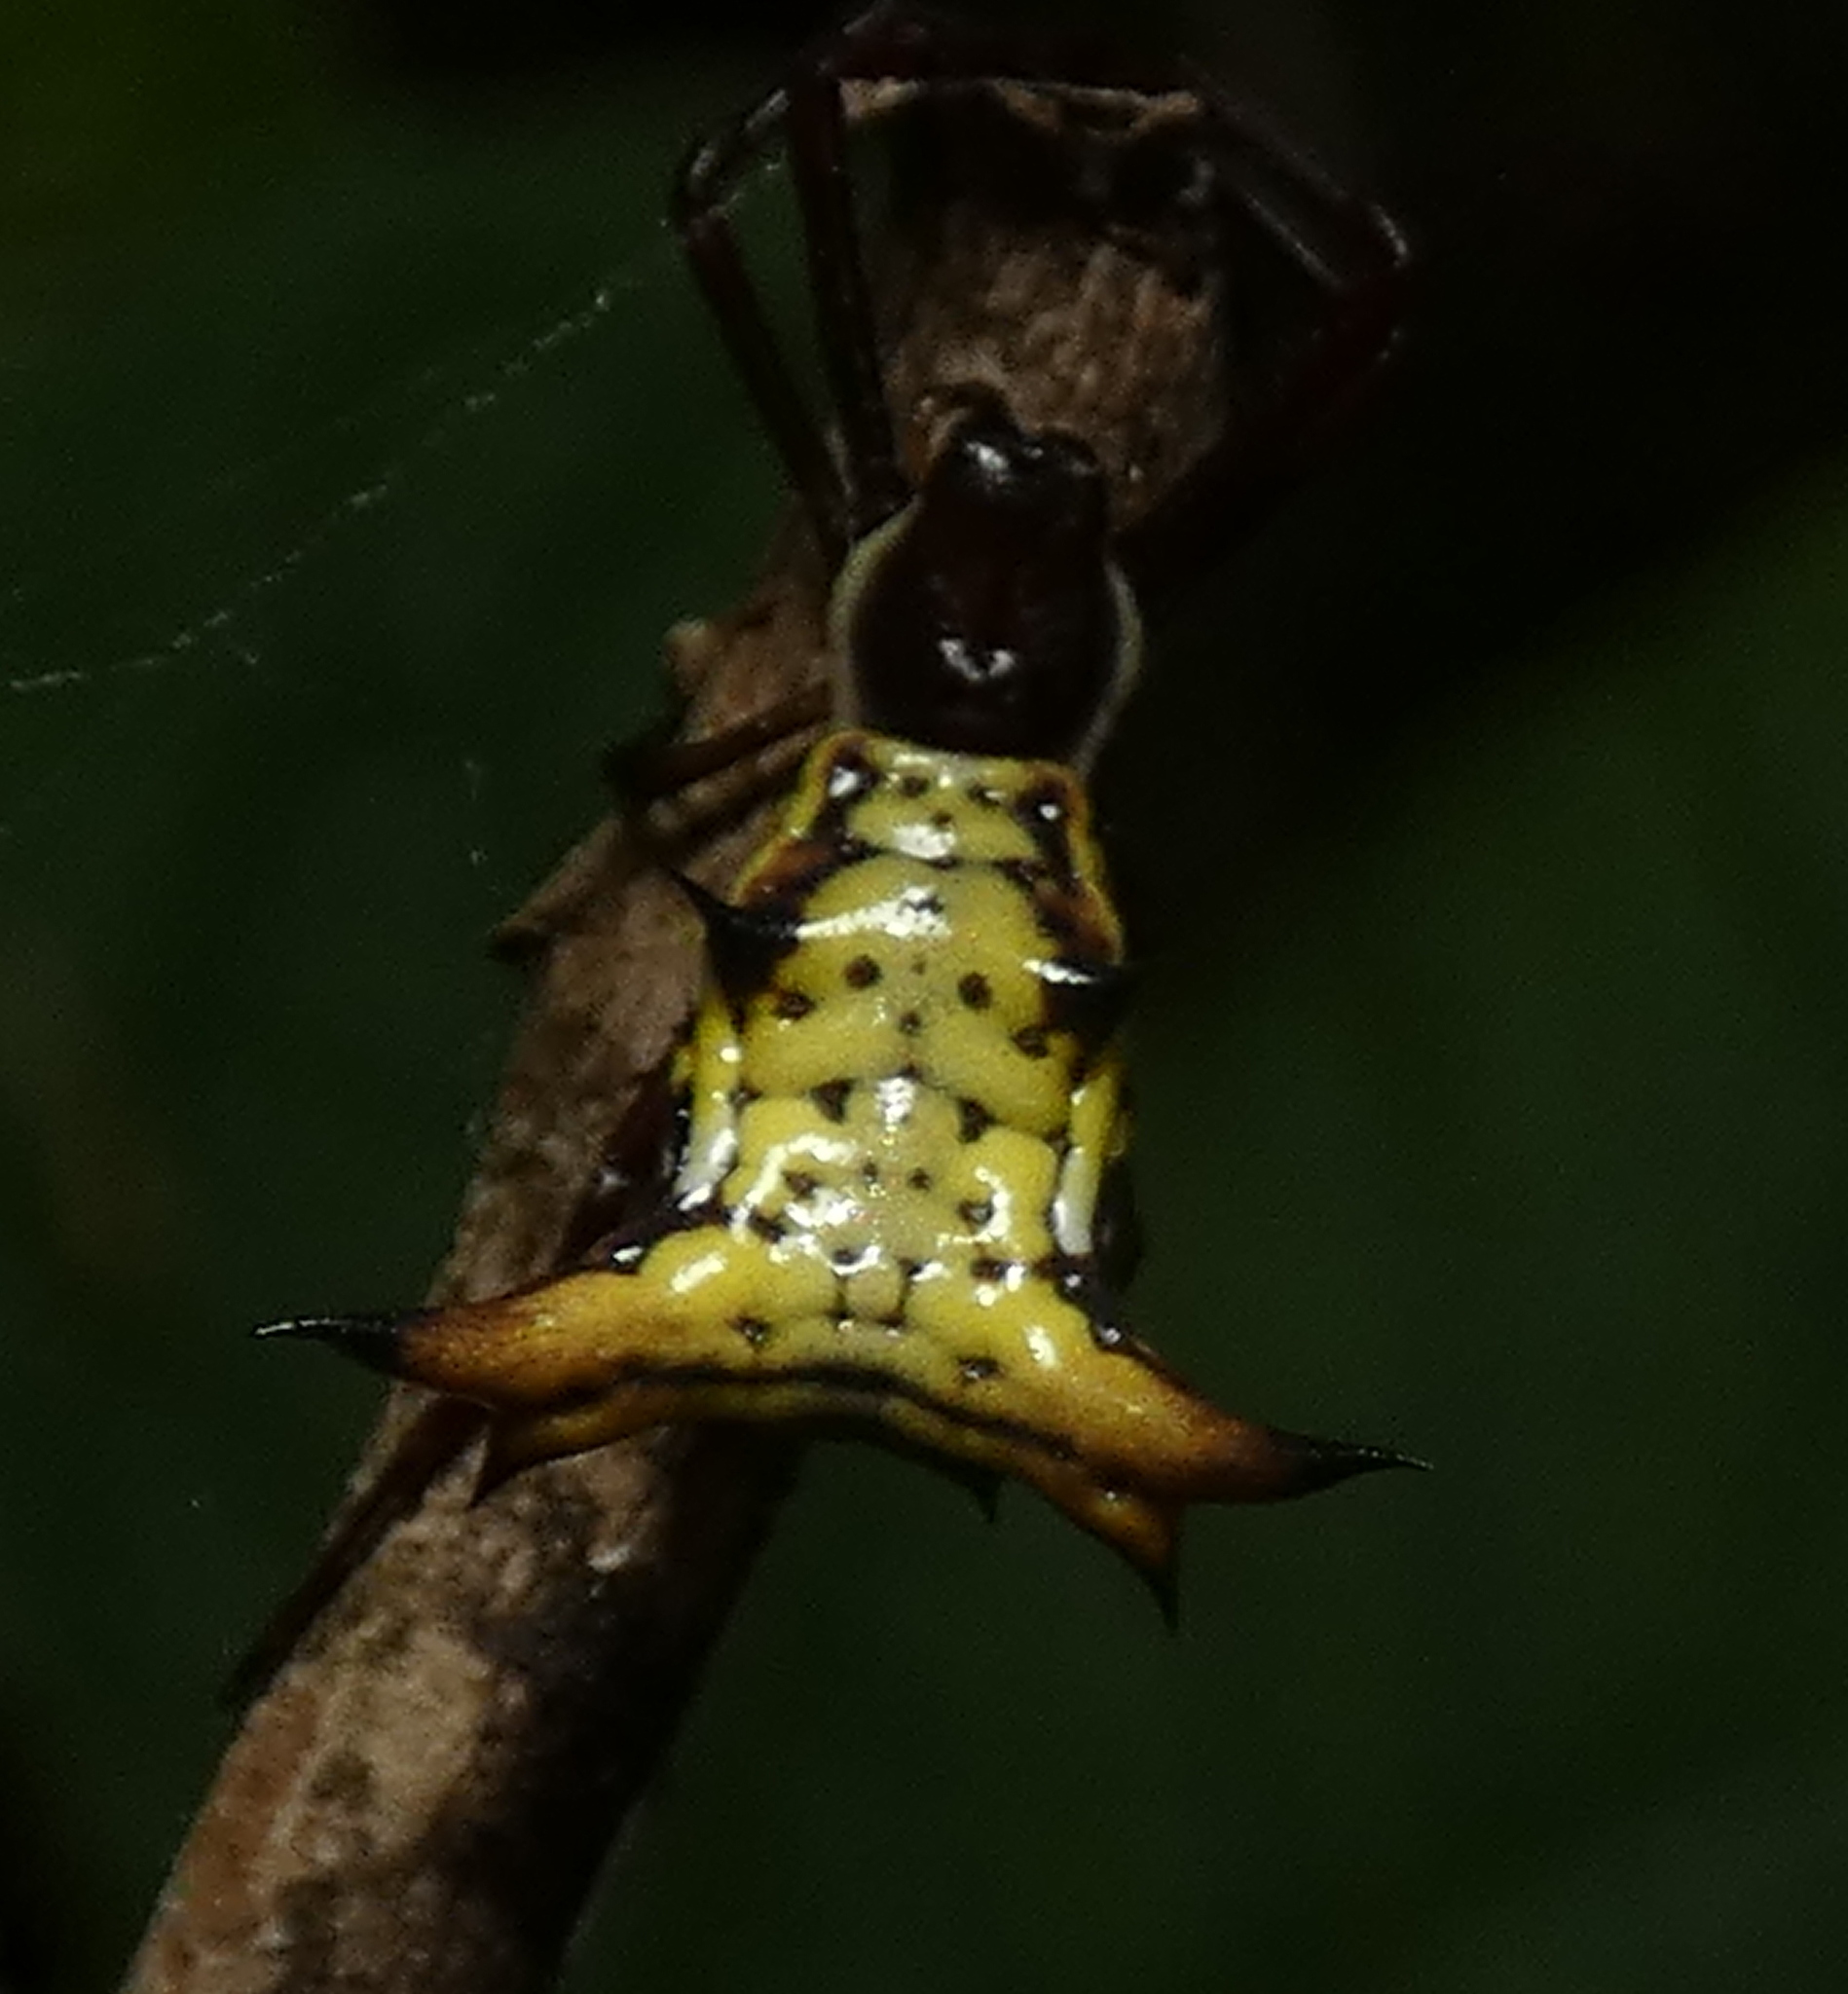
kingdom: Animalia
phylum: Arthropoda
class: Arachnida
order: Araneae
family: Araneidae
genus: Micrathena
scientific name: Micrathena fissispina
